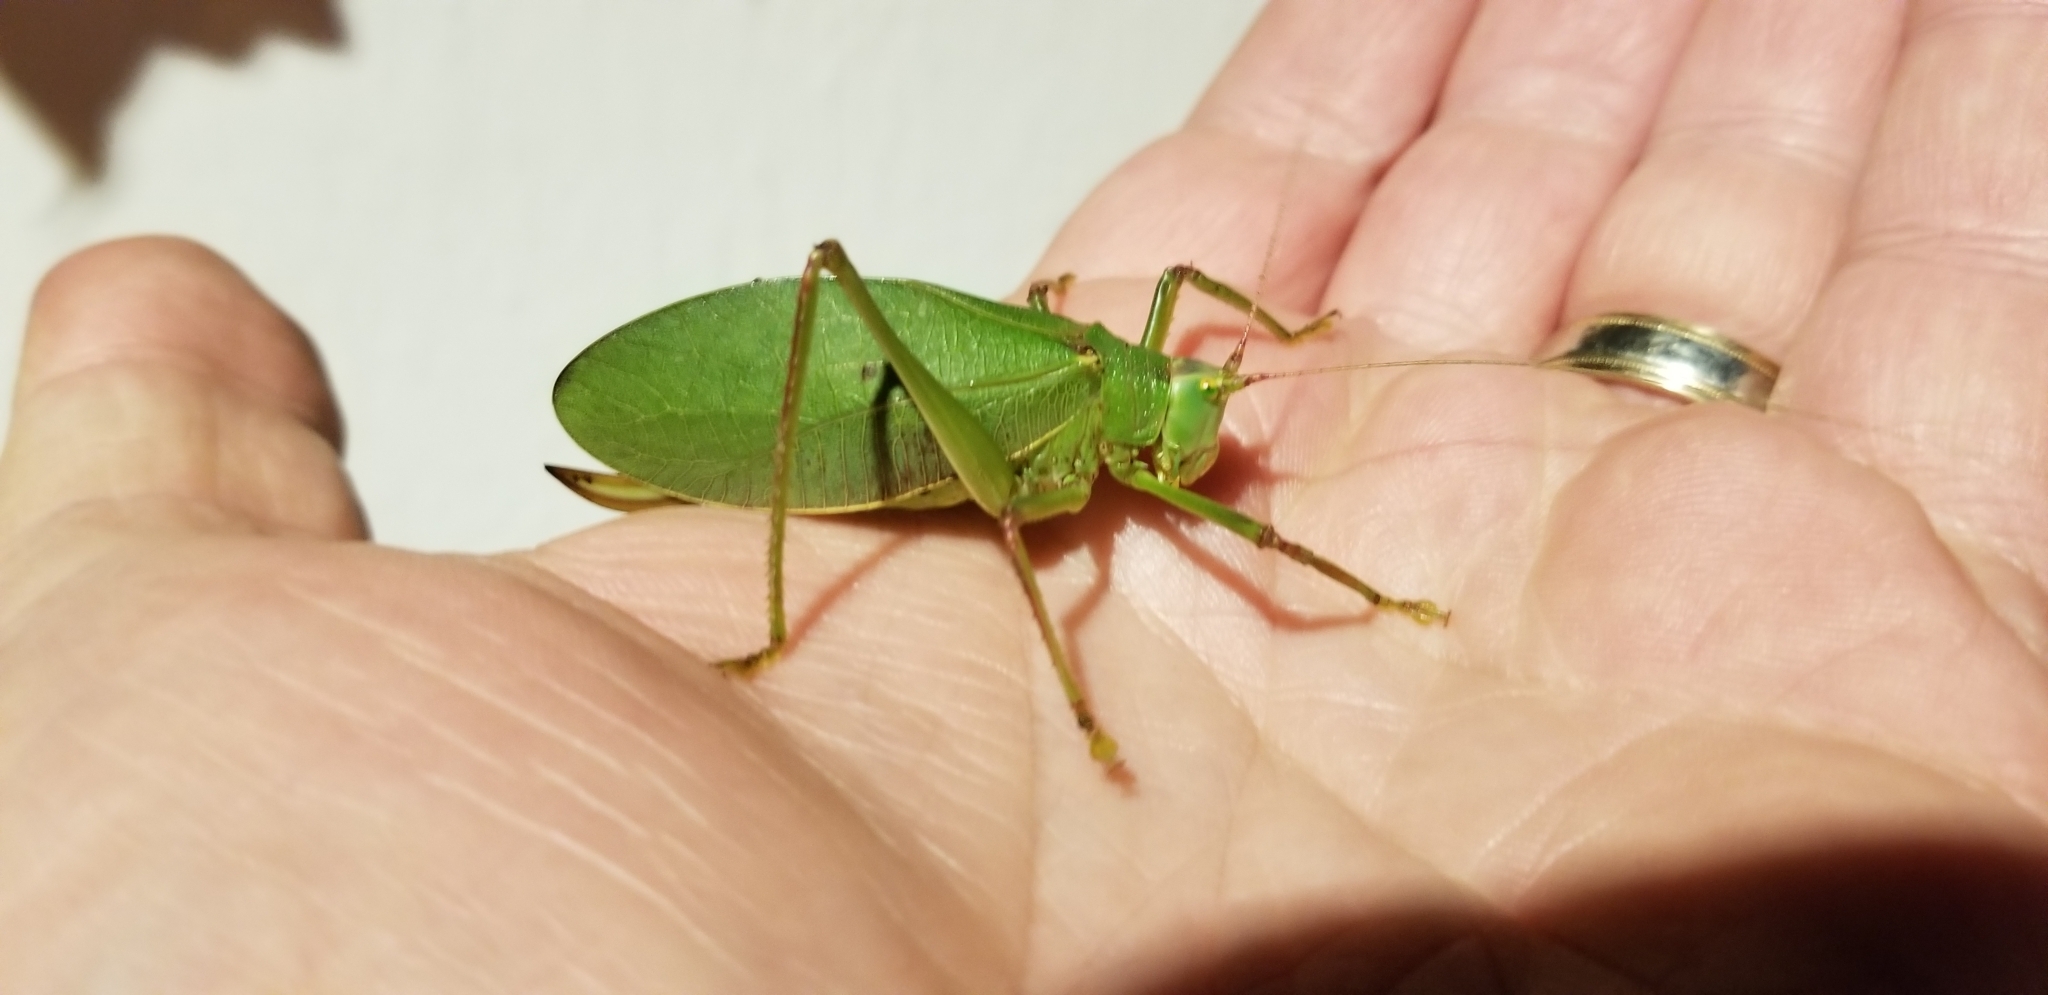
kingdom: Animalia
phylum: Arthropoda
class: Insecta
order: Orthoptera
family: Tettigoniidae
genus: Pterophylla
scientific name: Pterophylla camellifolia
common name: Common true katydid
